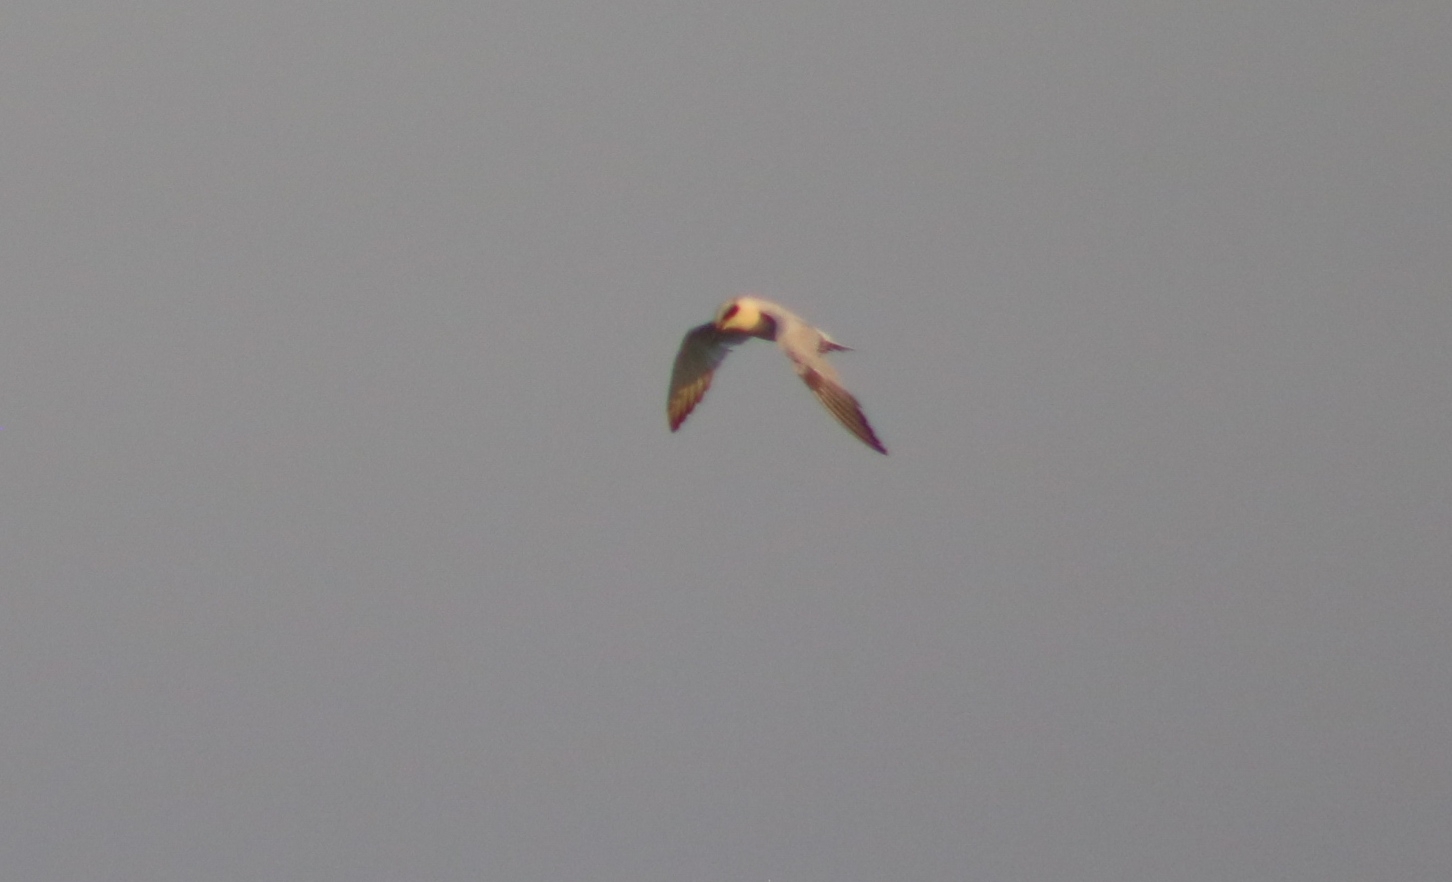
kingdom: Animalia
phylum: Chordata
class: Aves
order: Charadriiformes
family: Laridae
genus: Gelochelidon
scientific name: Gelochelidon macrotarsa
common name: Australian tern
